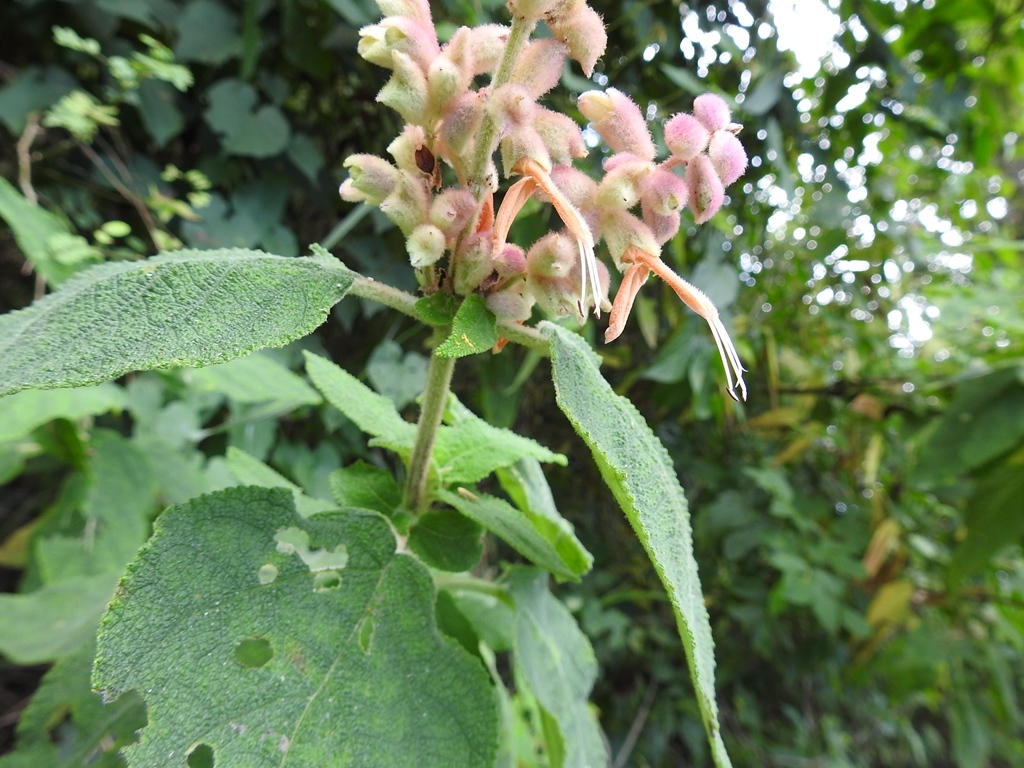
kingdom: Plantae
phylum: Tracheophyta
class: Magnoliopsida
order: Lamiales
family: Lamiaceae
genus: Salvia
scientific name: Salvia lasiantha
